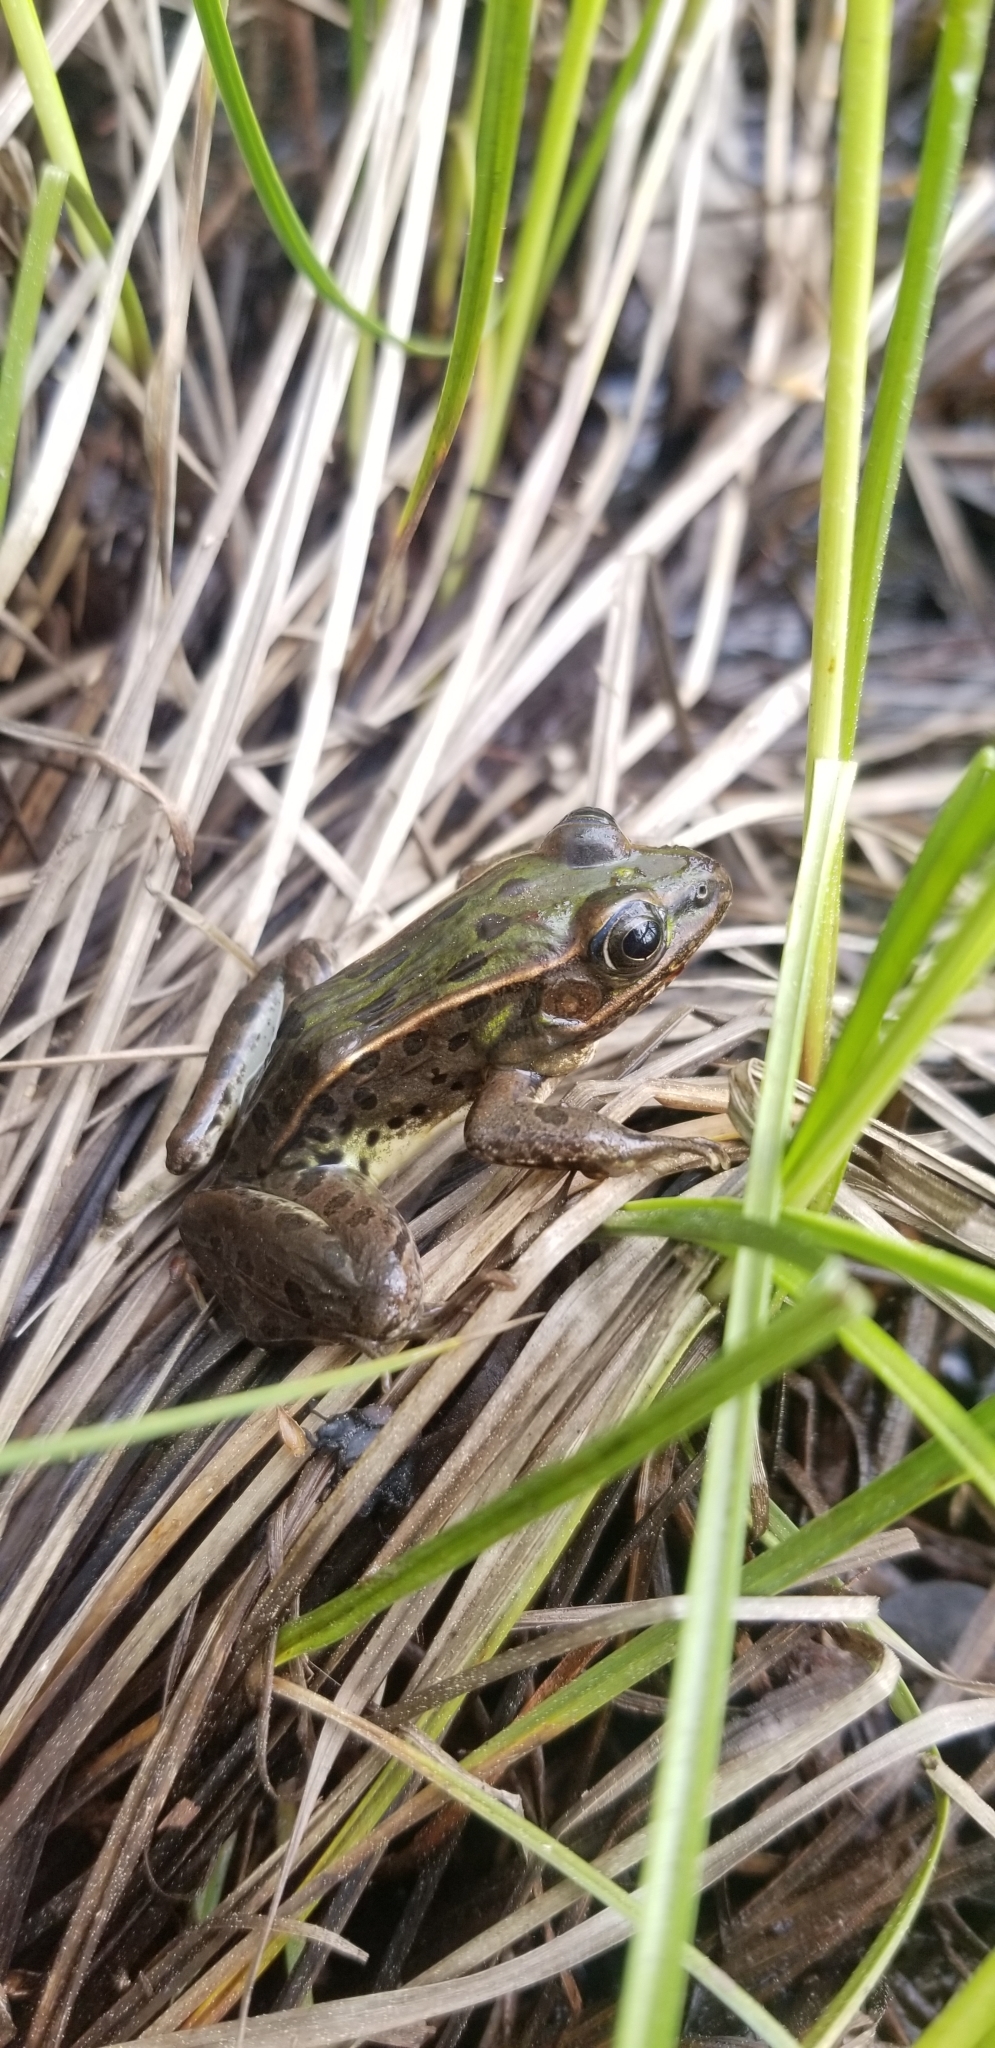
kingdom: Animalia
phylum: Chordata
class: Amphibia
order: Anura
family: Ranidae
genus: Lithobates
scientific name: Lithobates sphenocephalus
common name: Southern leopard frog
